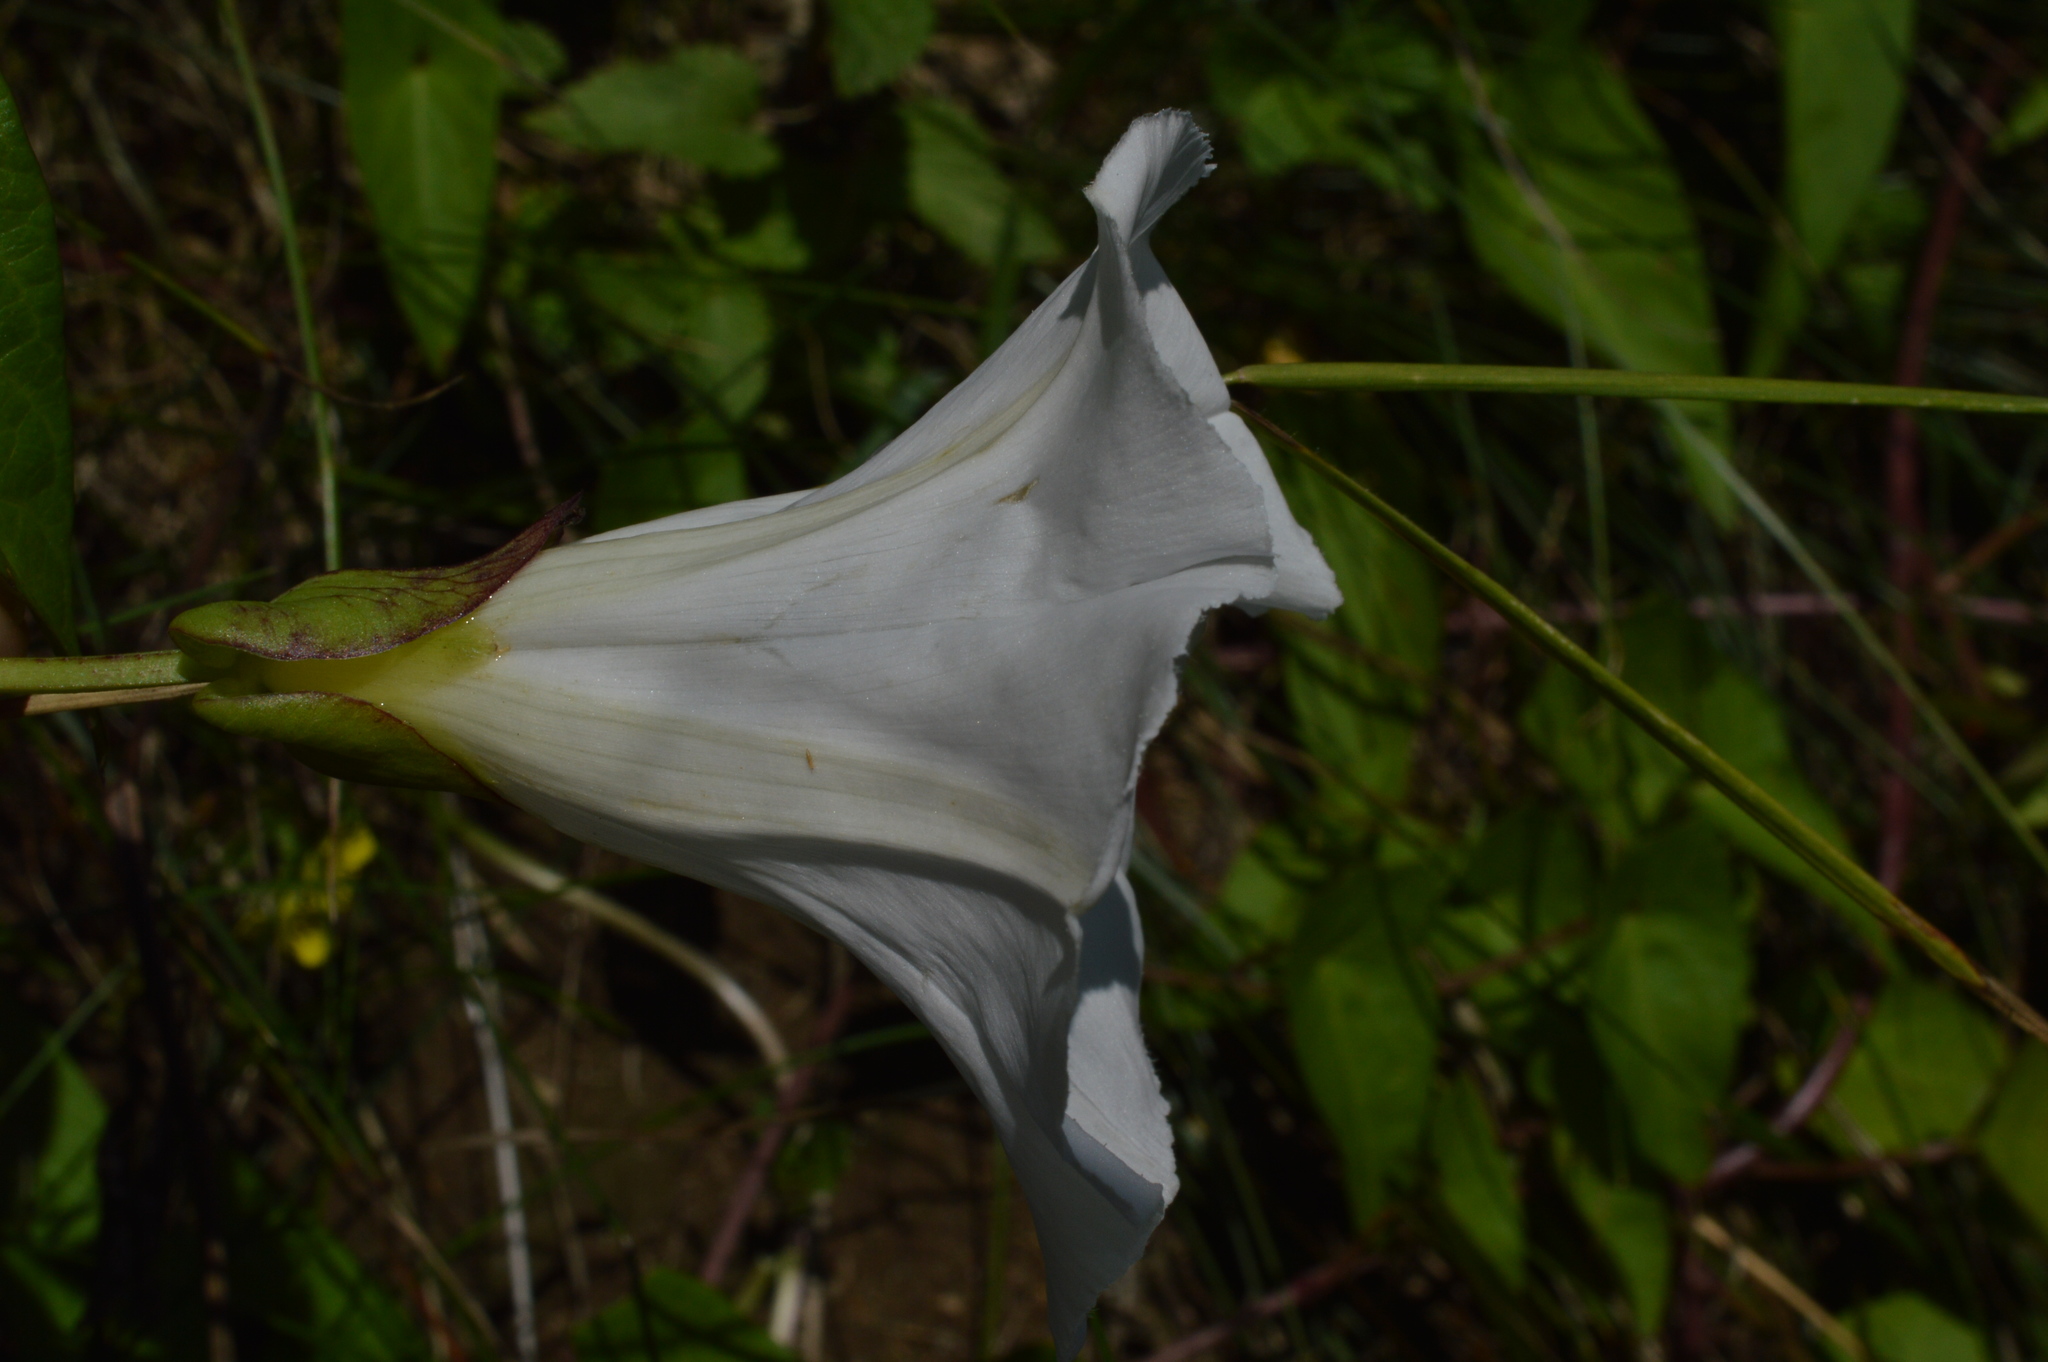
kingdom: Plantae
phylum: Tracheophyta
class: Magnoliopsida
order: Solanales
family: Convolvulaceae
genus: Calystegia
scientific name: Calystegia sepium
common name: Hedge bindweed
